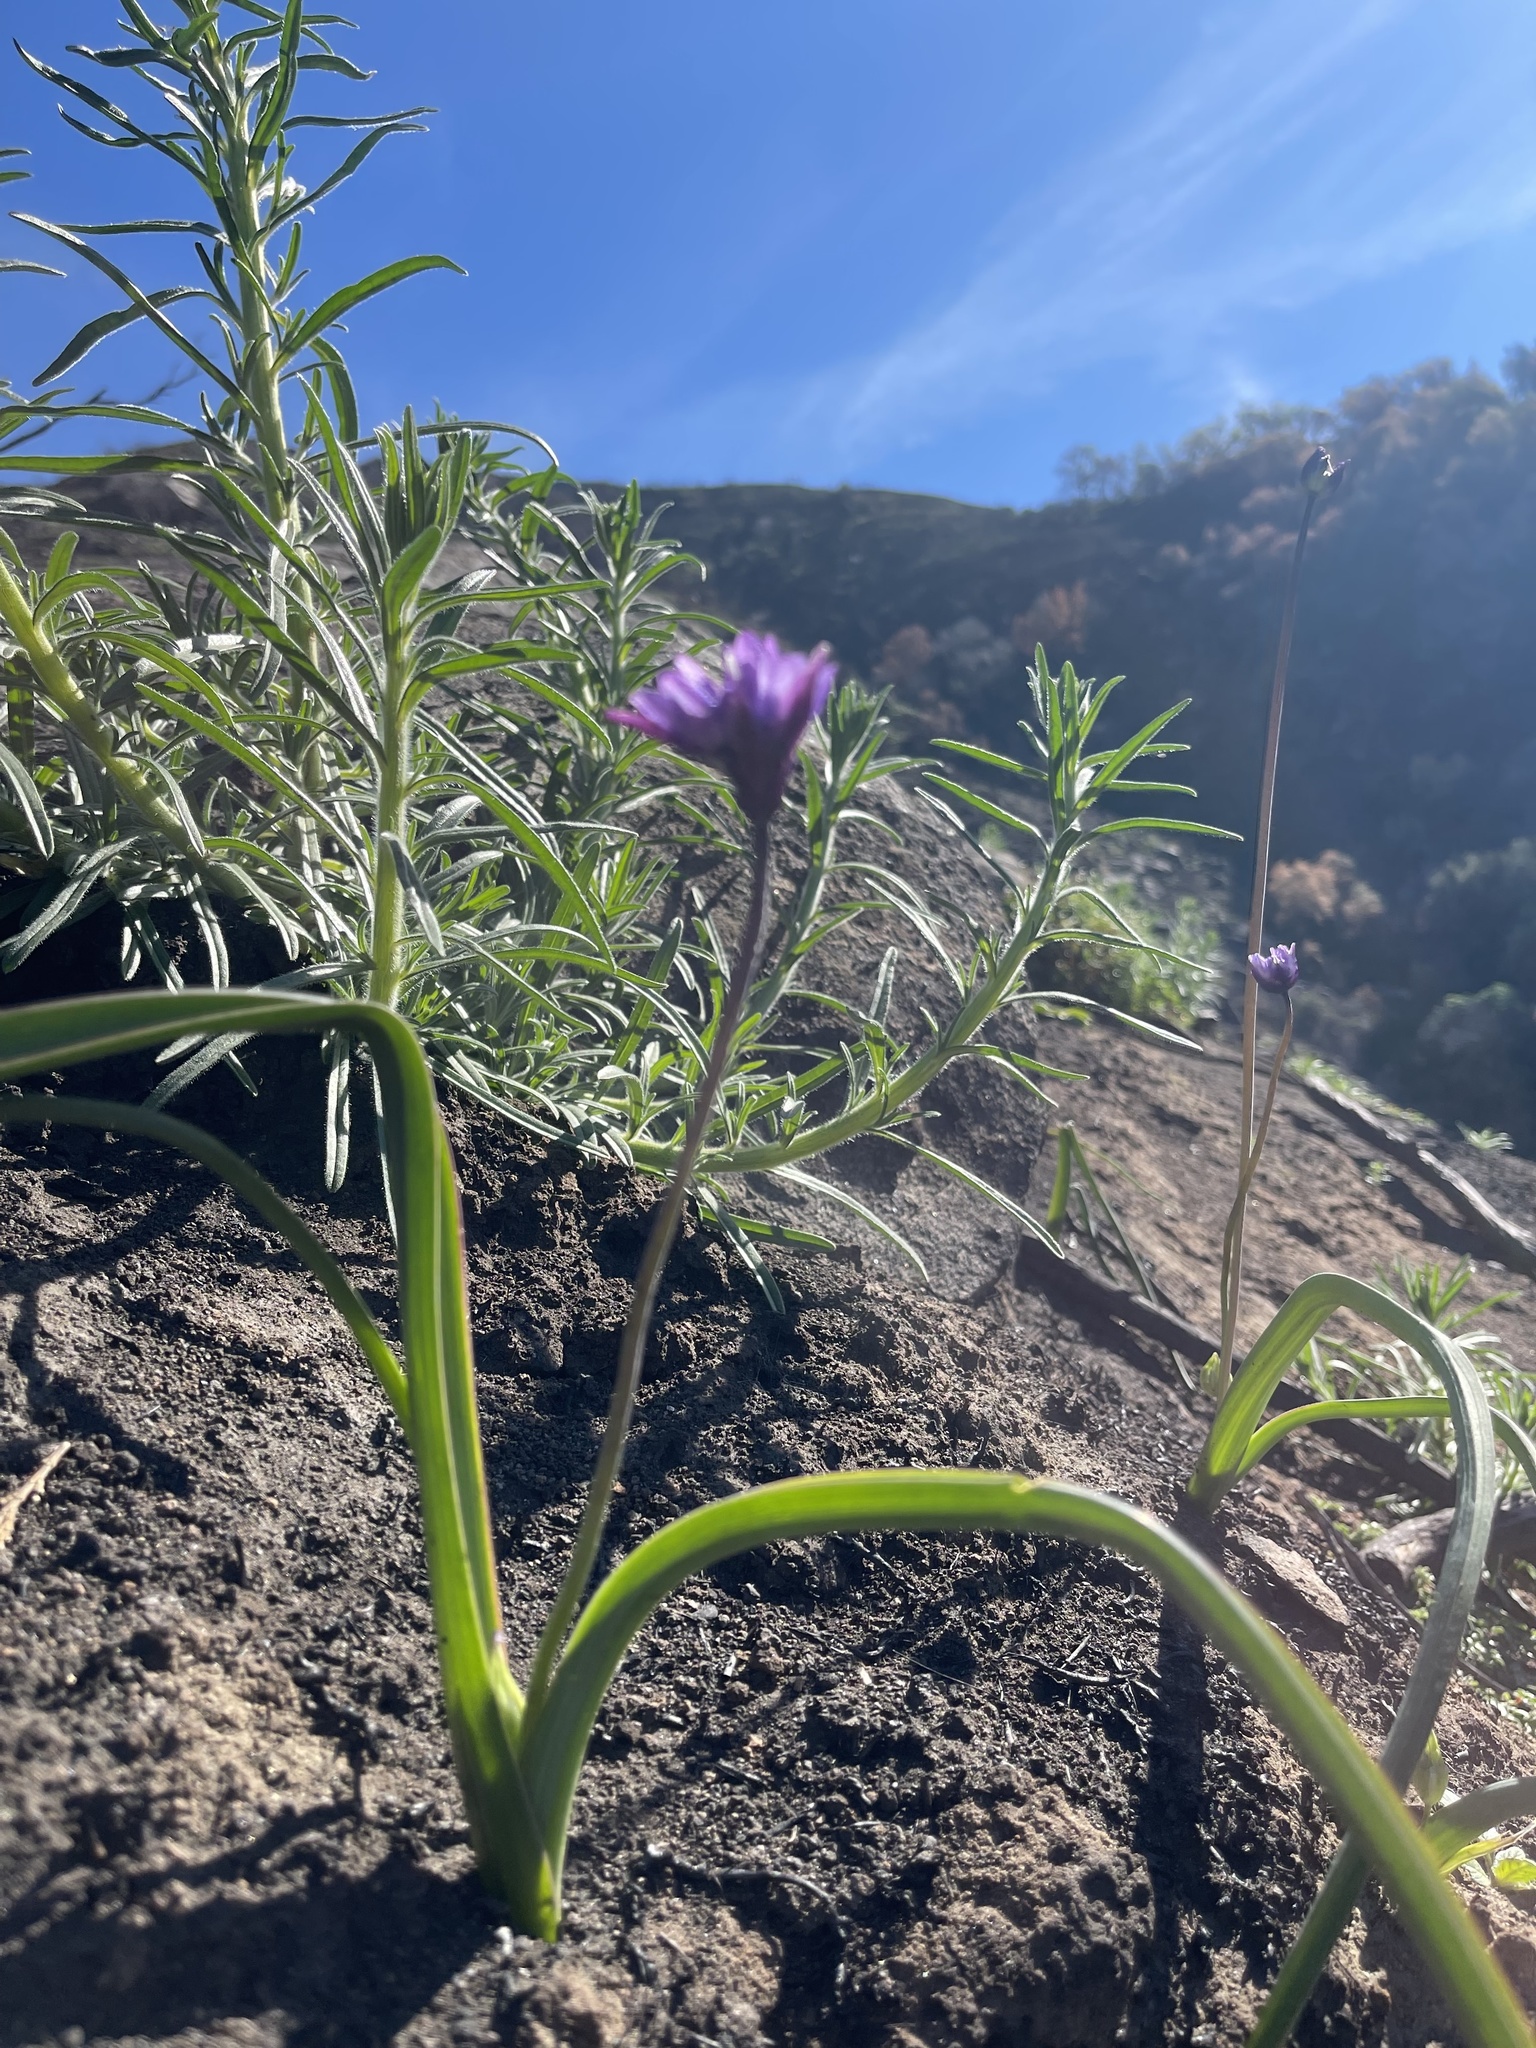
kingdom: Plantae
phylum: Tracheophyta
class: Liliopsida
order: Asparagales
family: Asparagaceae
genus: Dipterostemon
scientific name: Dipterostemon capitatus
